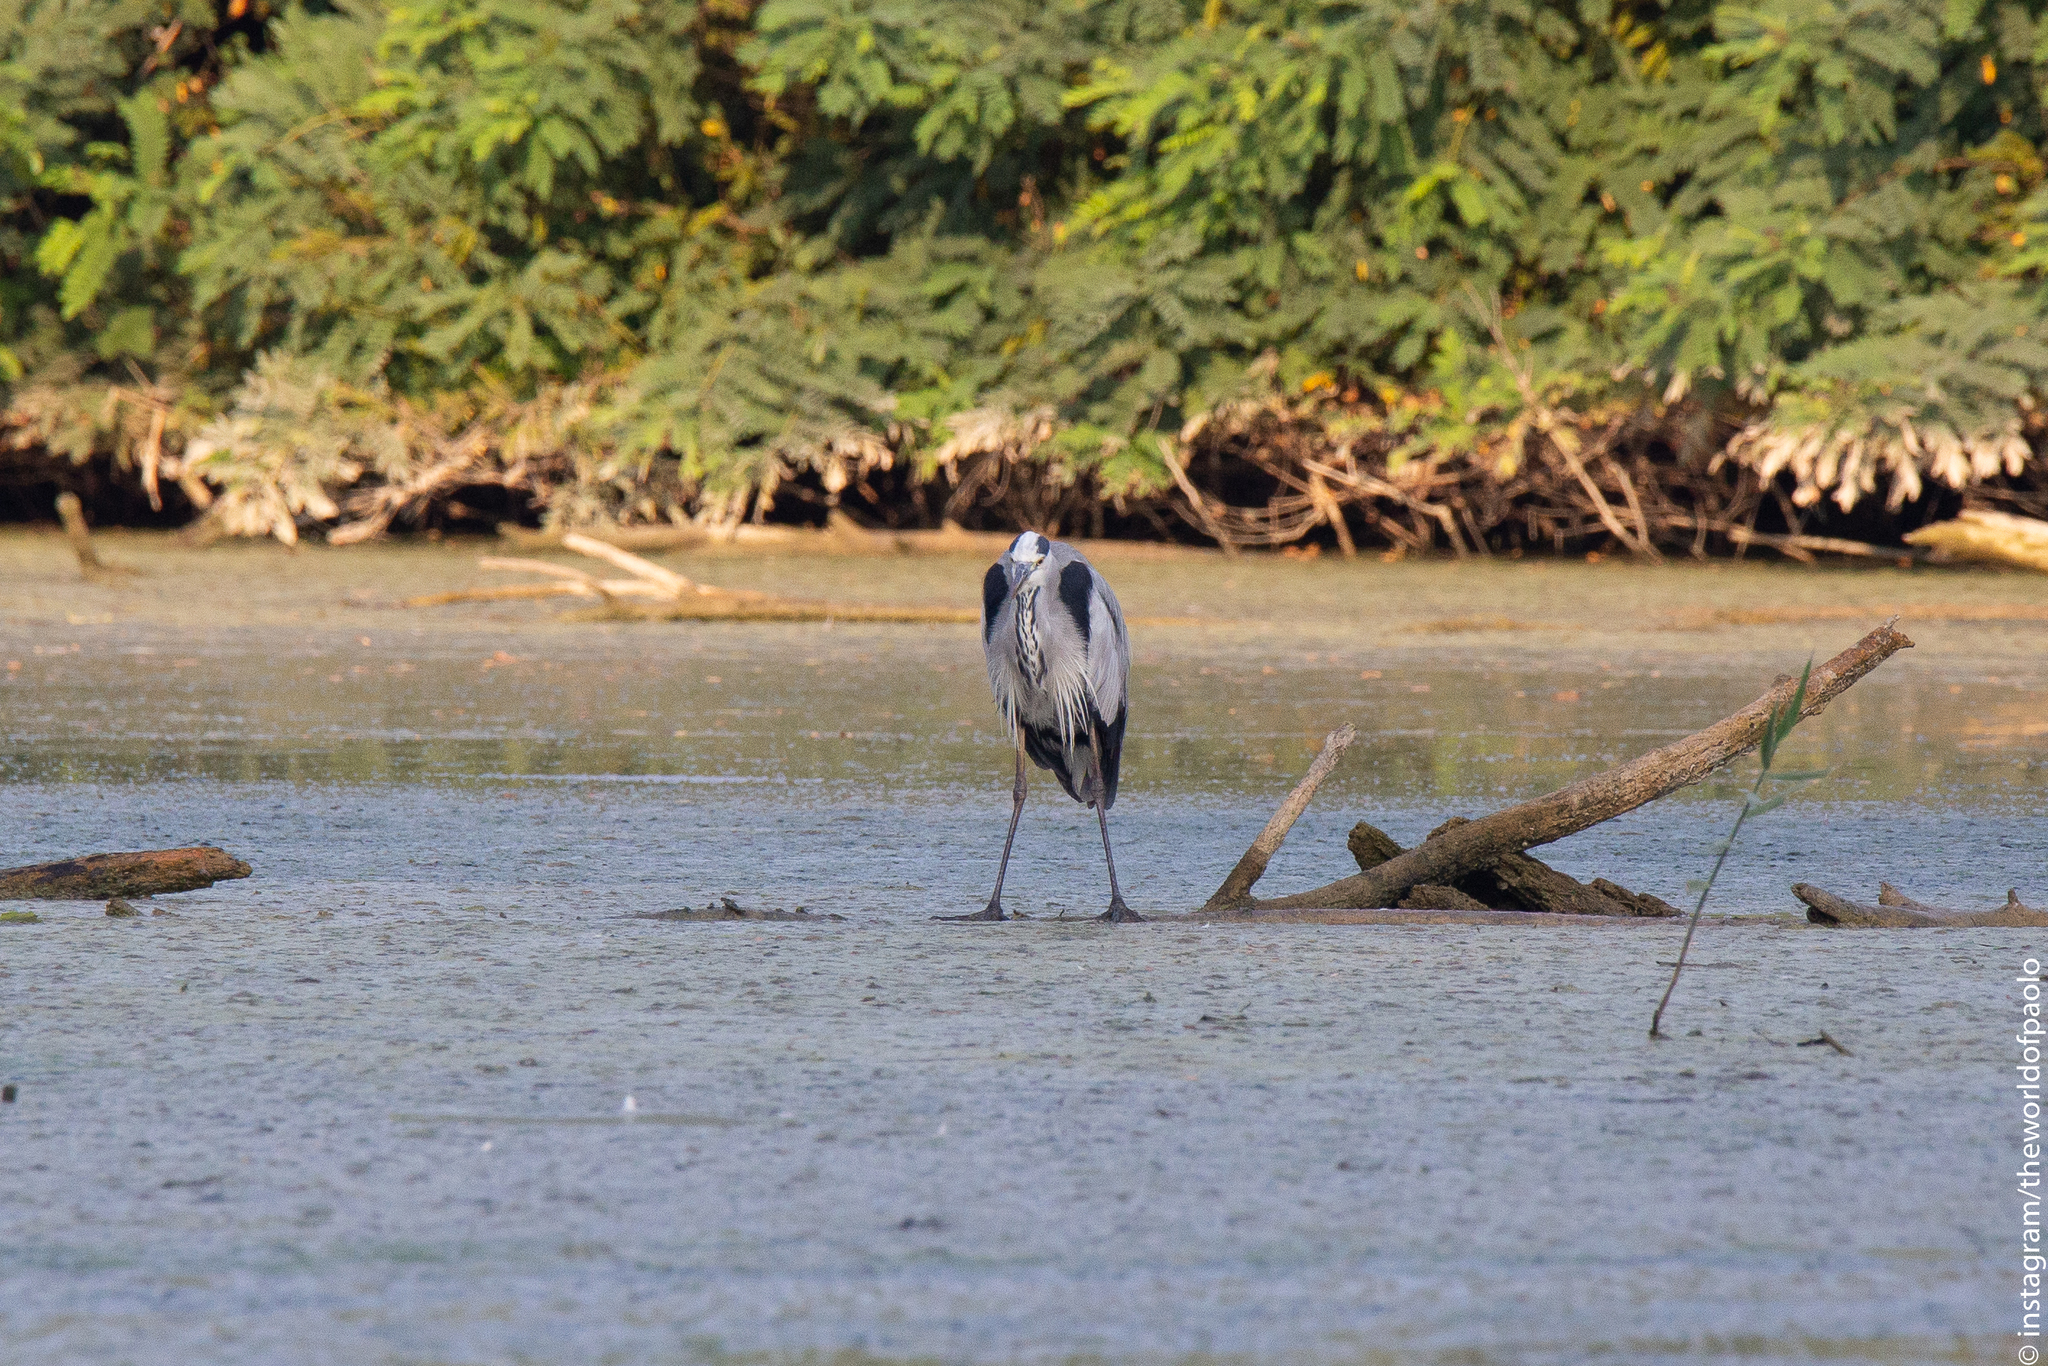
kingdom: Animalia
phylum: Chordata
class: Aves
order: Pelecaniformes
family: Ardeidae
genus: Ardea
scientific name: Ardea cinerea
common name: Grey heron
